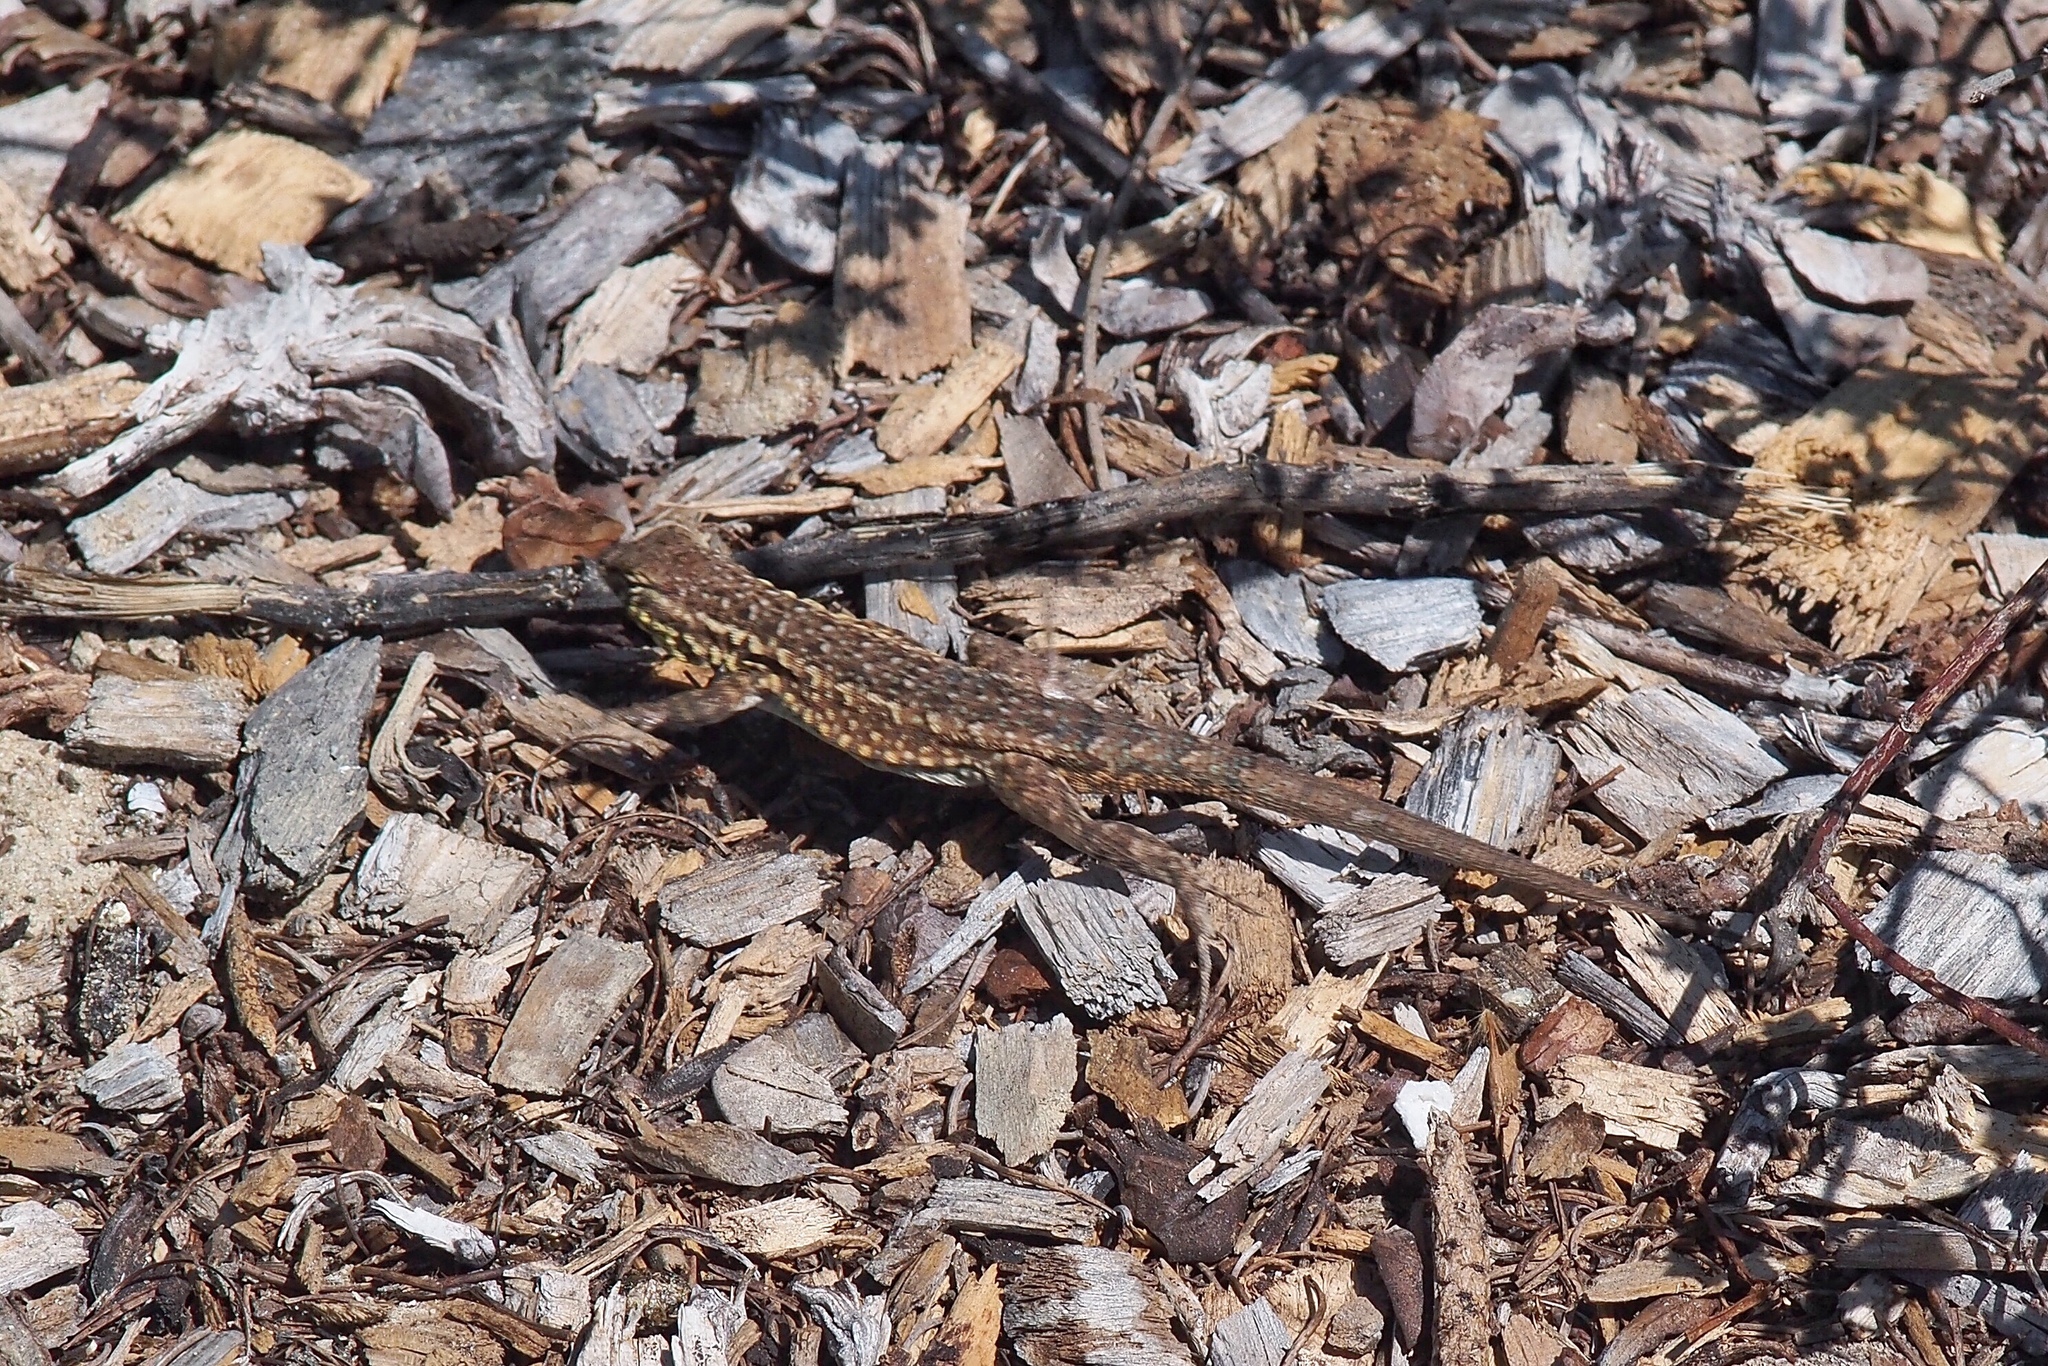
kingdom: Animalia
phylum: Chordata
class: Squamata
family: Phrynosomatidae
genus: Uta
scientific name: Uta stansburiana
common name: Side-blotched lizard
